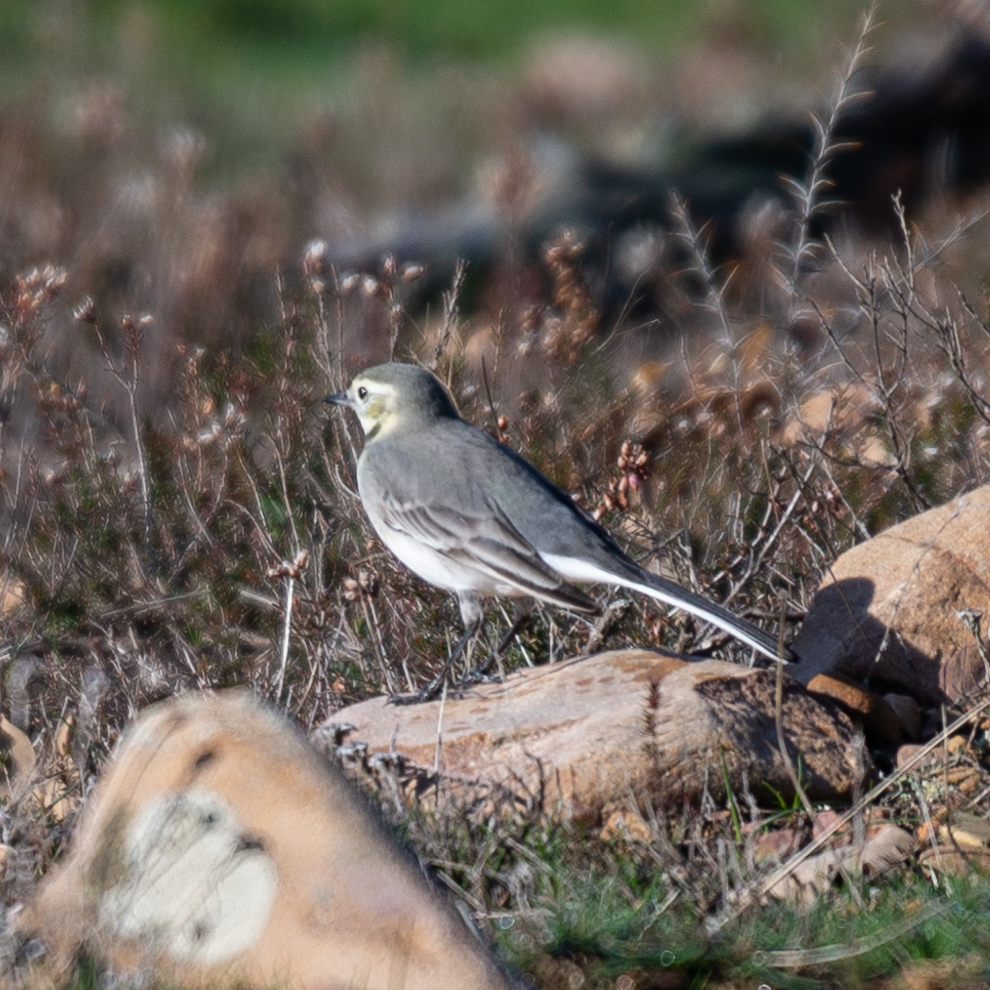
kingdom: Animalia
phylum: Chordata
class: Aves
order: Passeriformes
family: Motacillidae
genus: Motacilla
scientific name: Motacilla alba
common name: White wagtail
